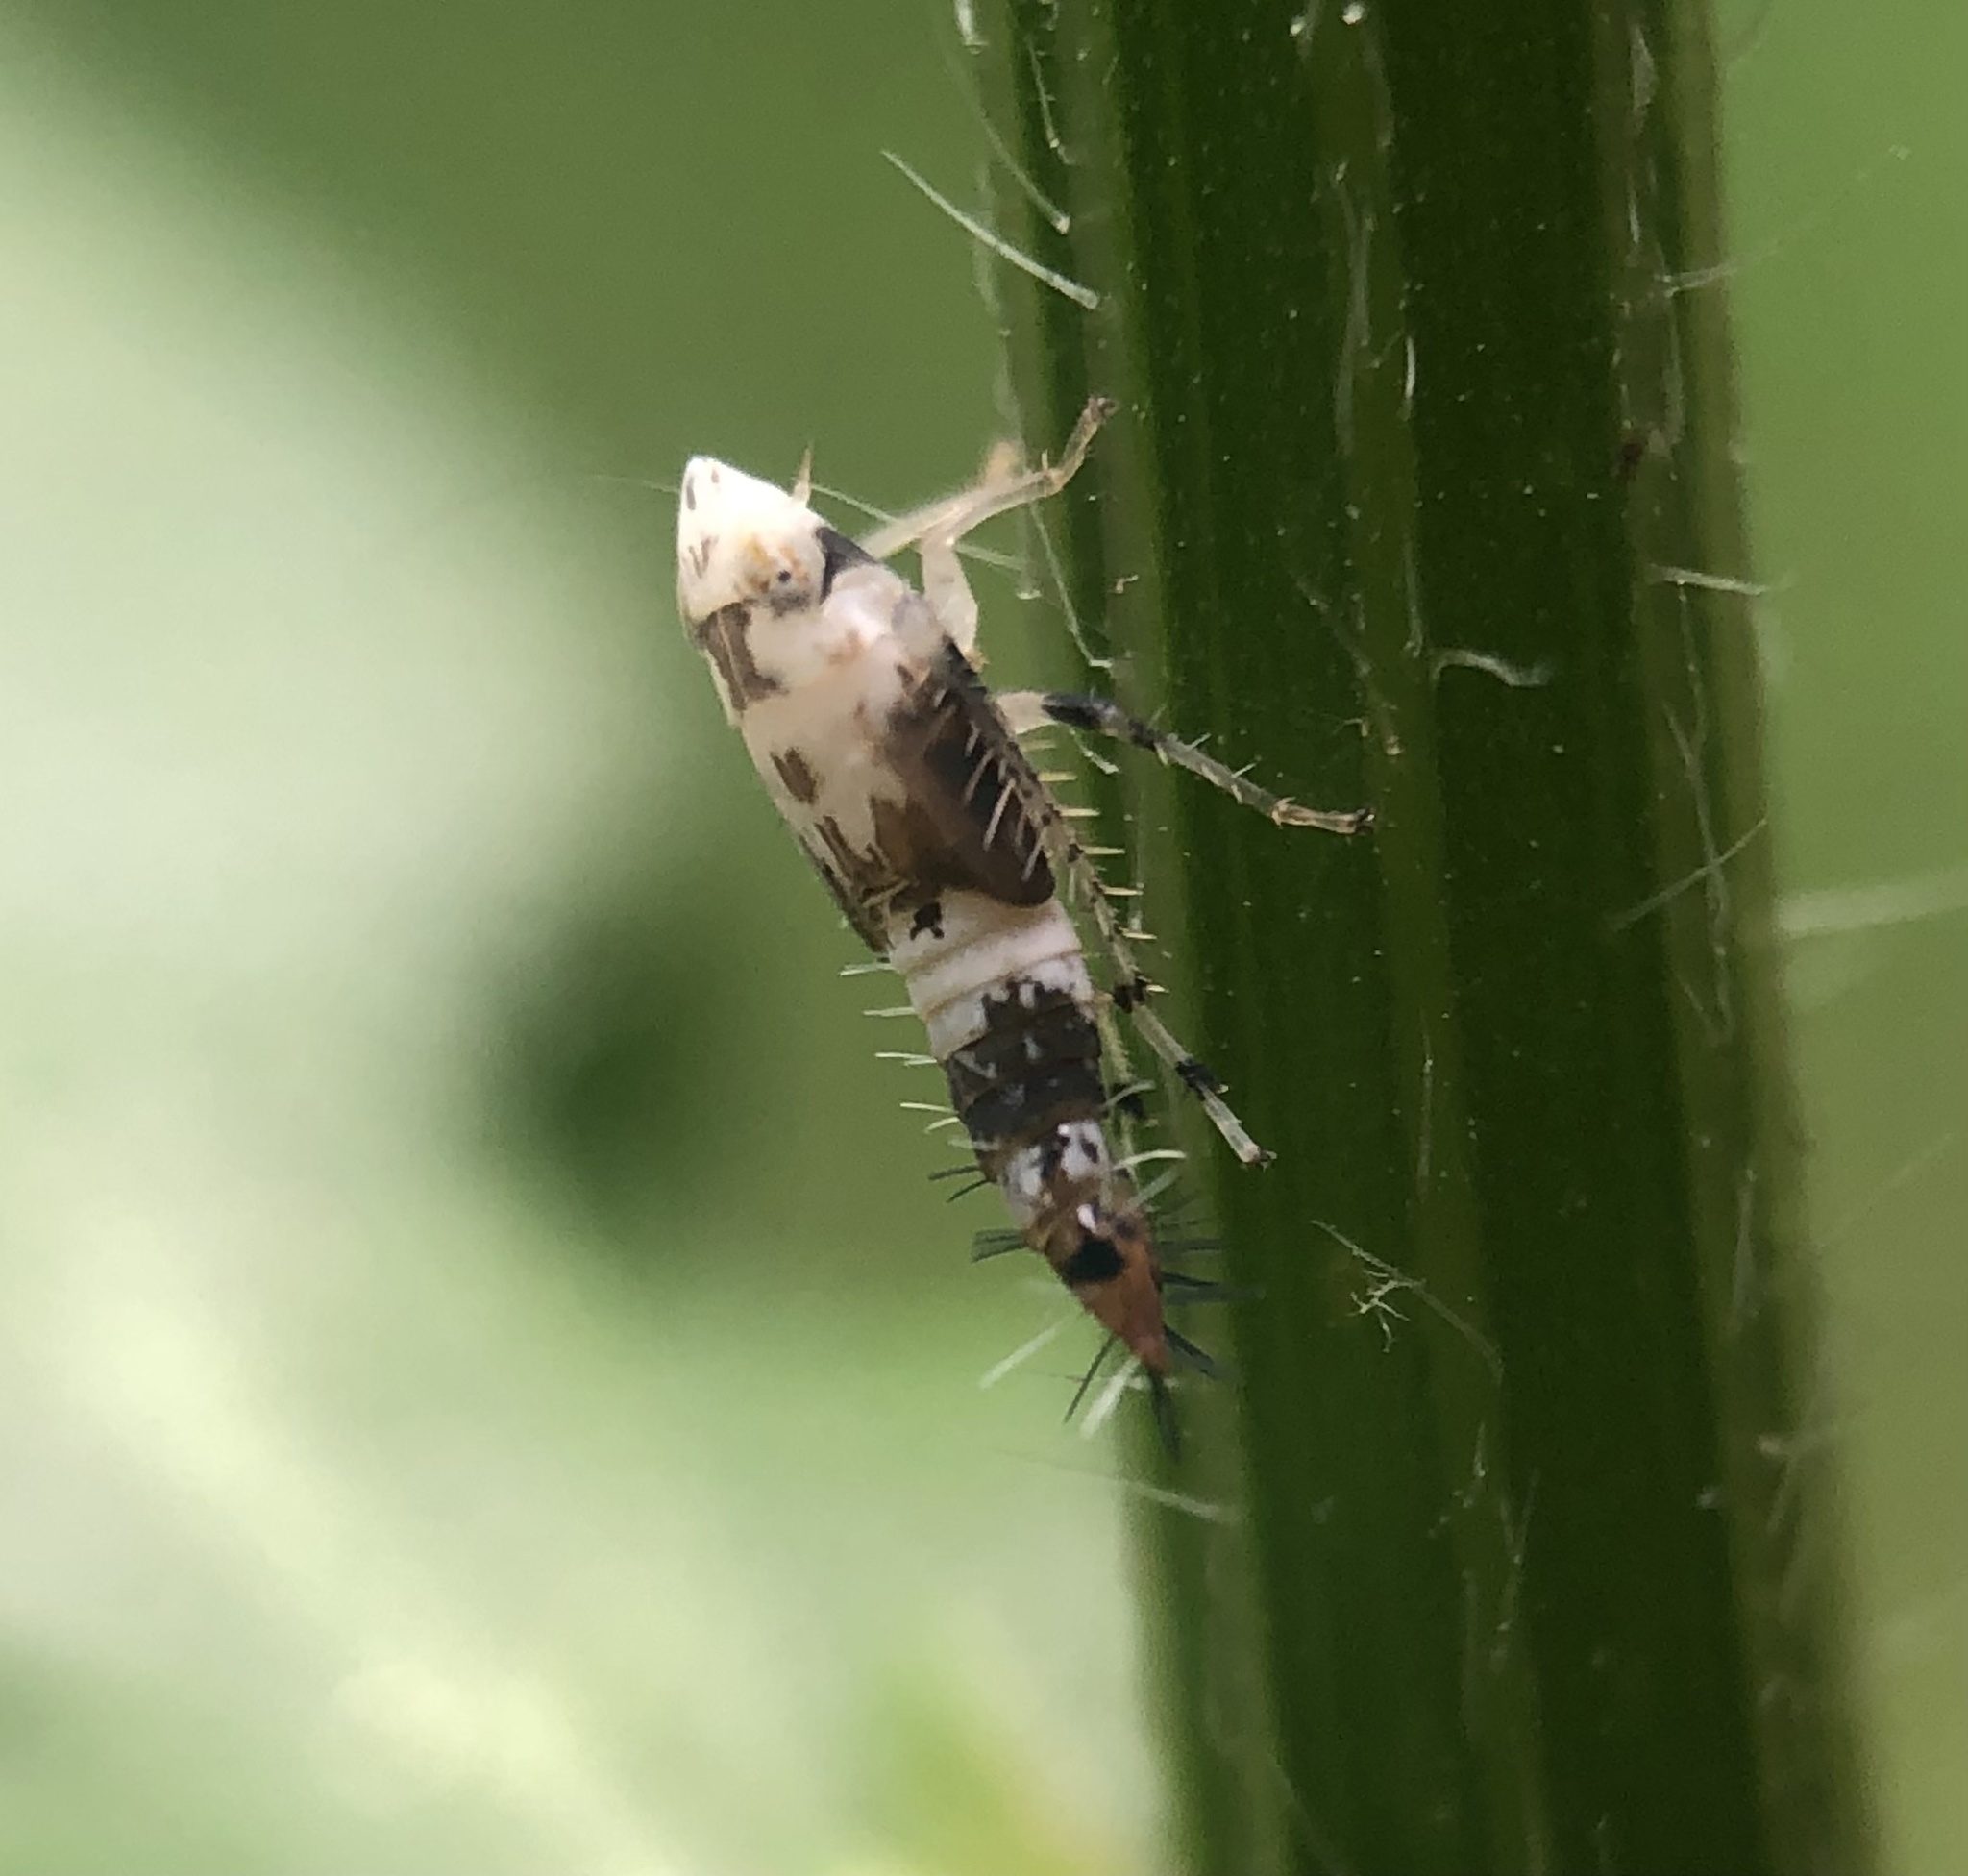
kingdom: Animalia
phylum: Arthropoda
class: Insecta
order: Hemiptera
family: Cicadellidae
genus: Scaphoideus
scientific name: Scaphoideus titanus
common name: American grapevine leafhopper
